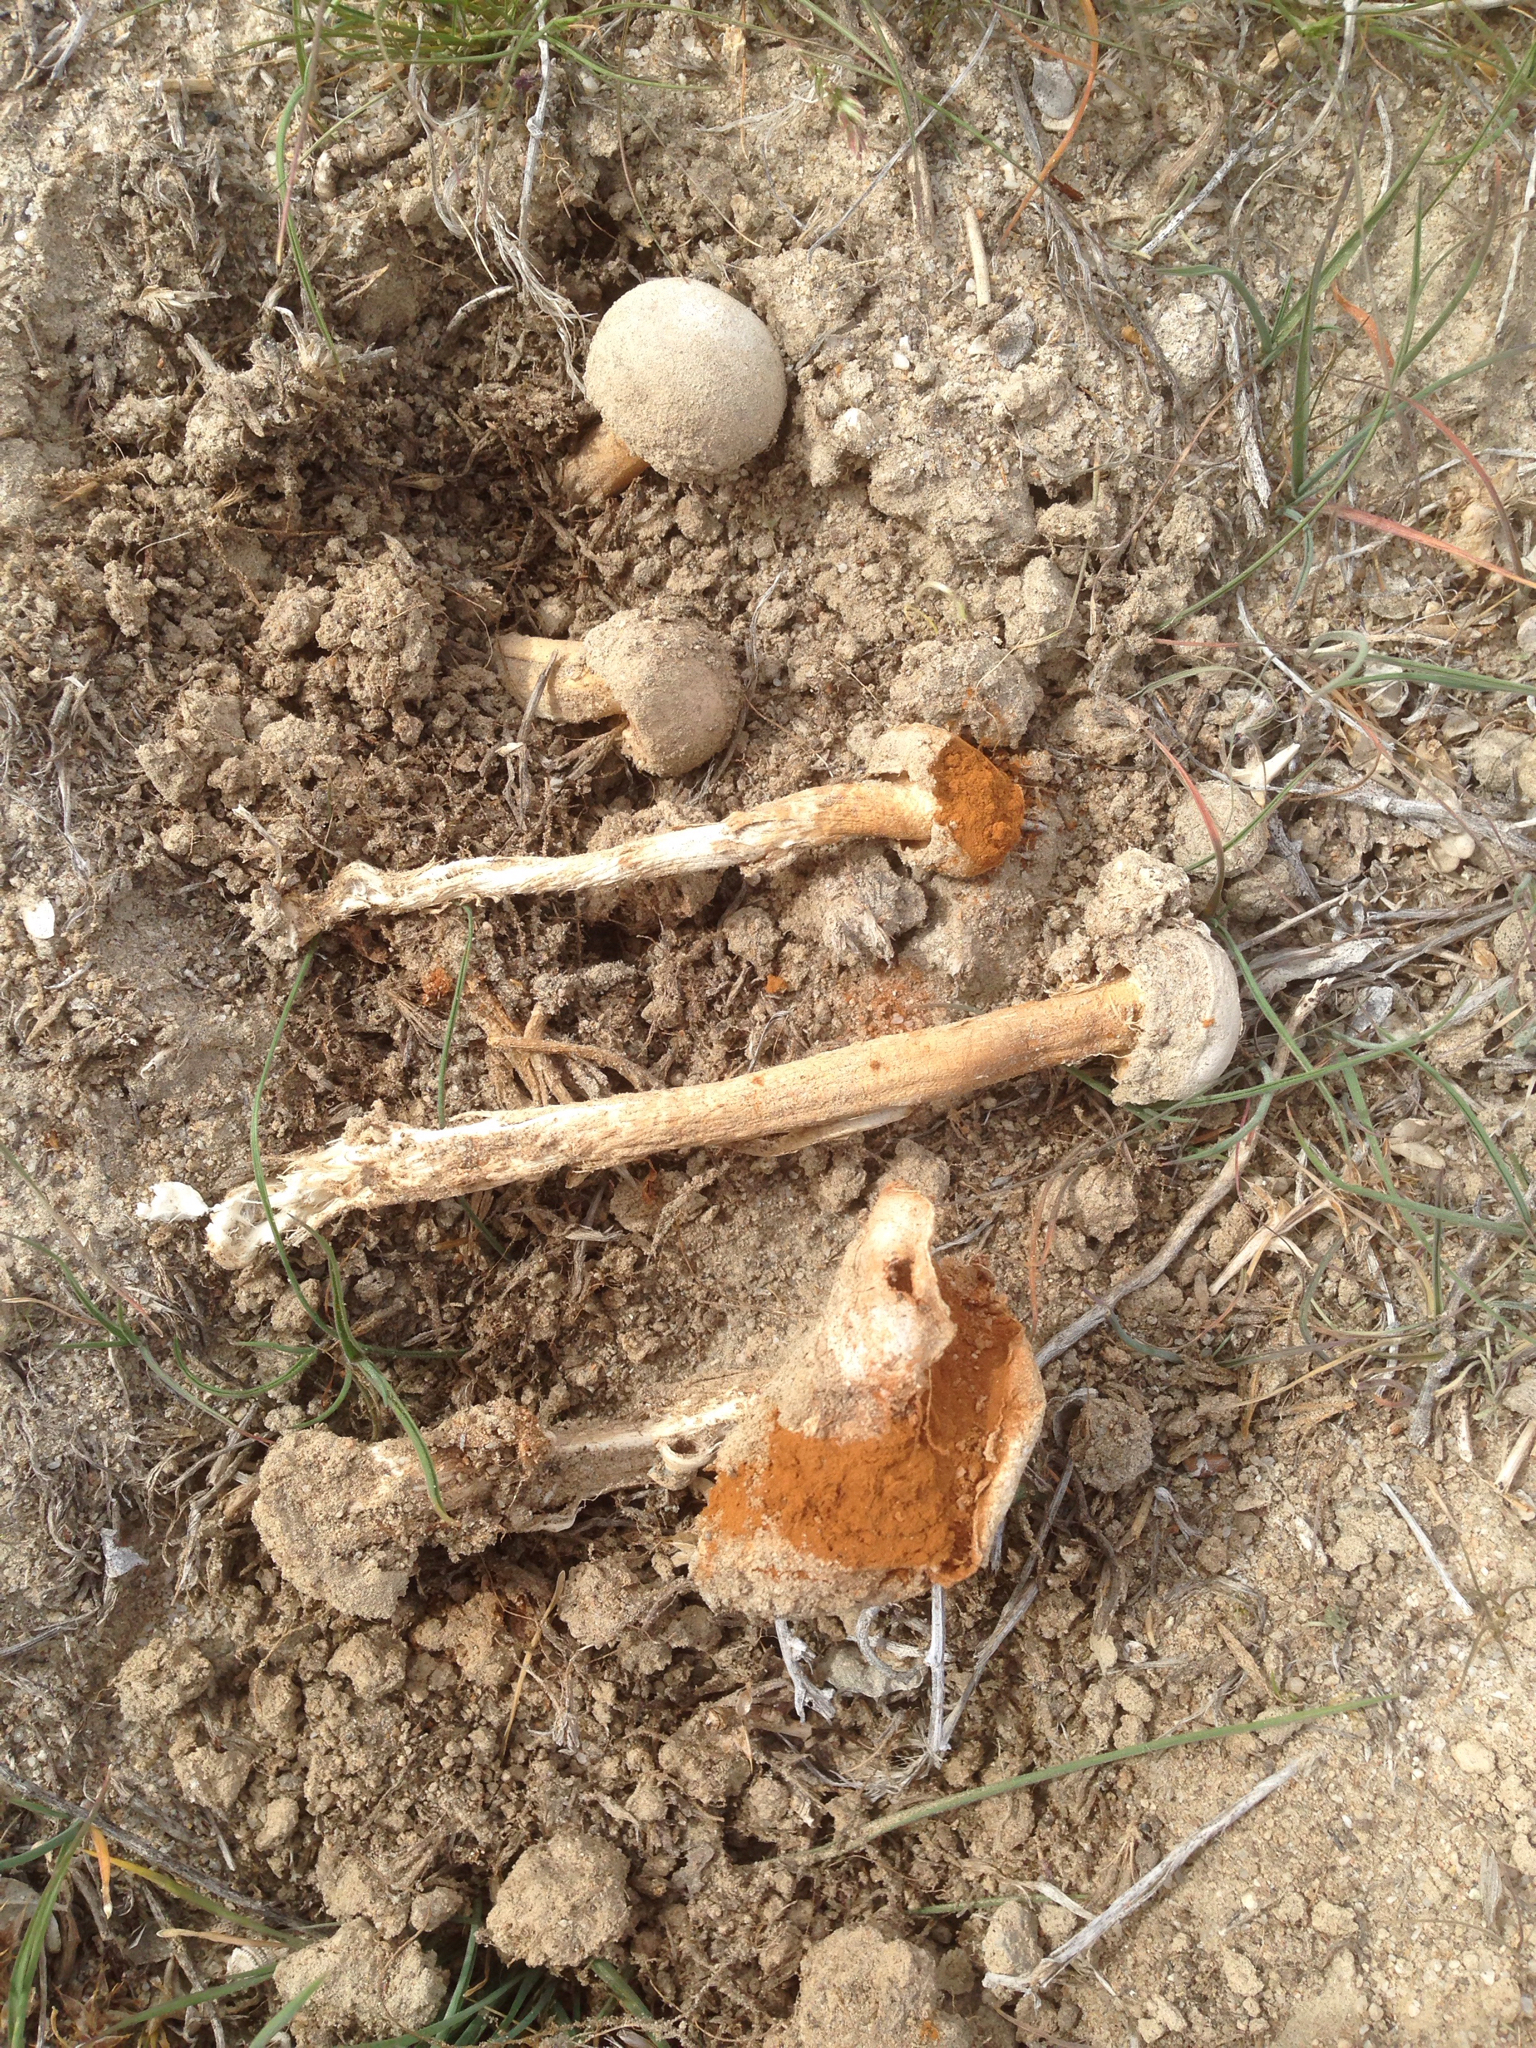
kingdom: Fungi
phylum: Basidiomycota
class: Agaricomycetes
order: Agaricales
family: Agaricaceae
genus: Battarrea
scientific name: Battarrea phalloides
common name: Sandy stiltball
